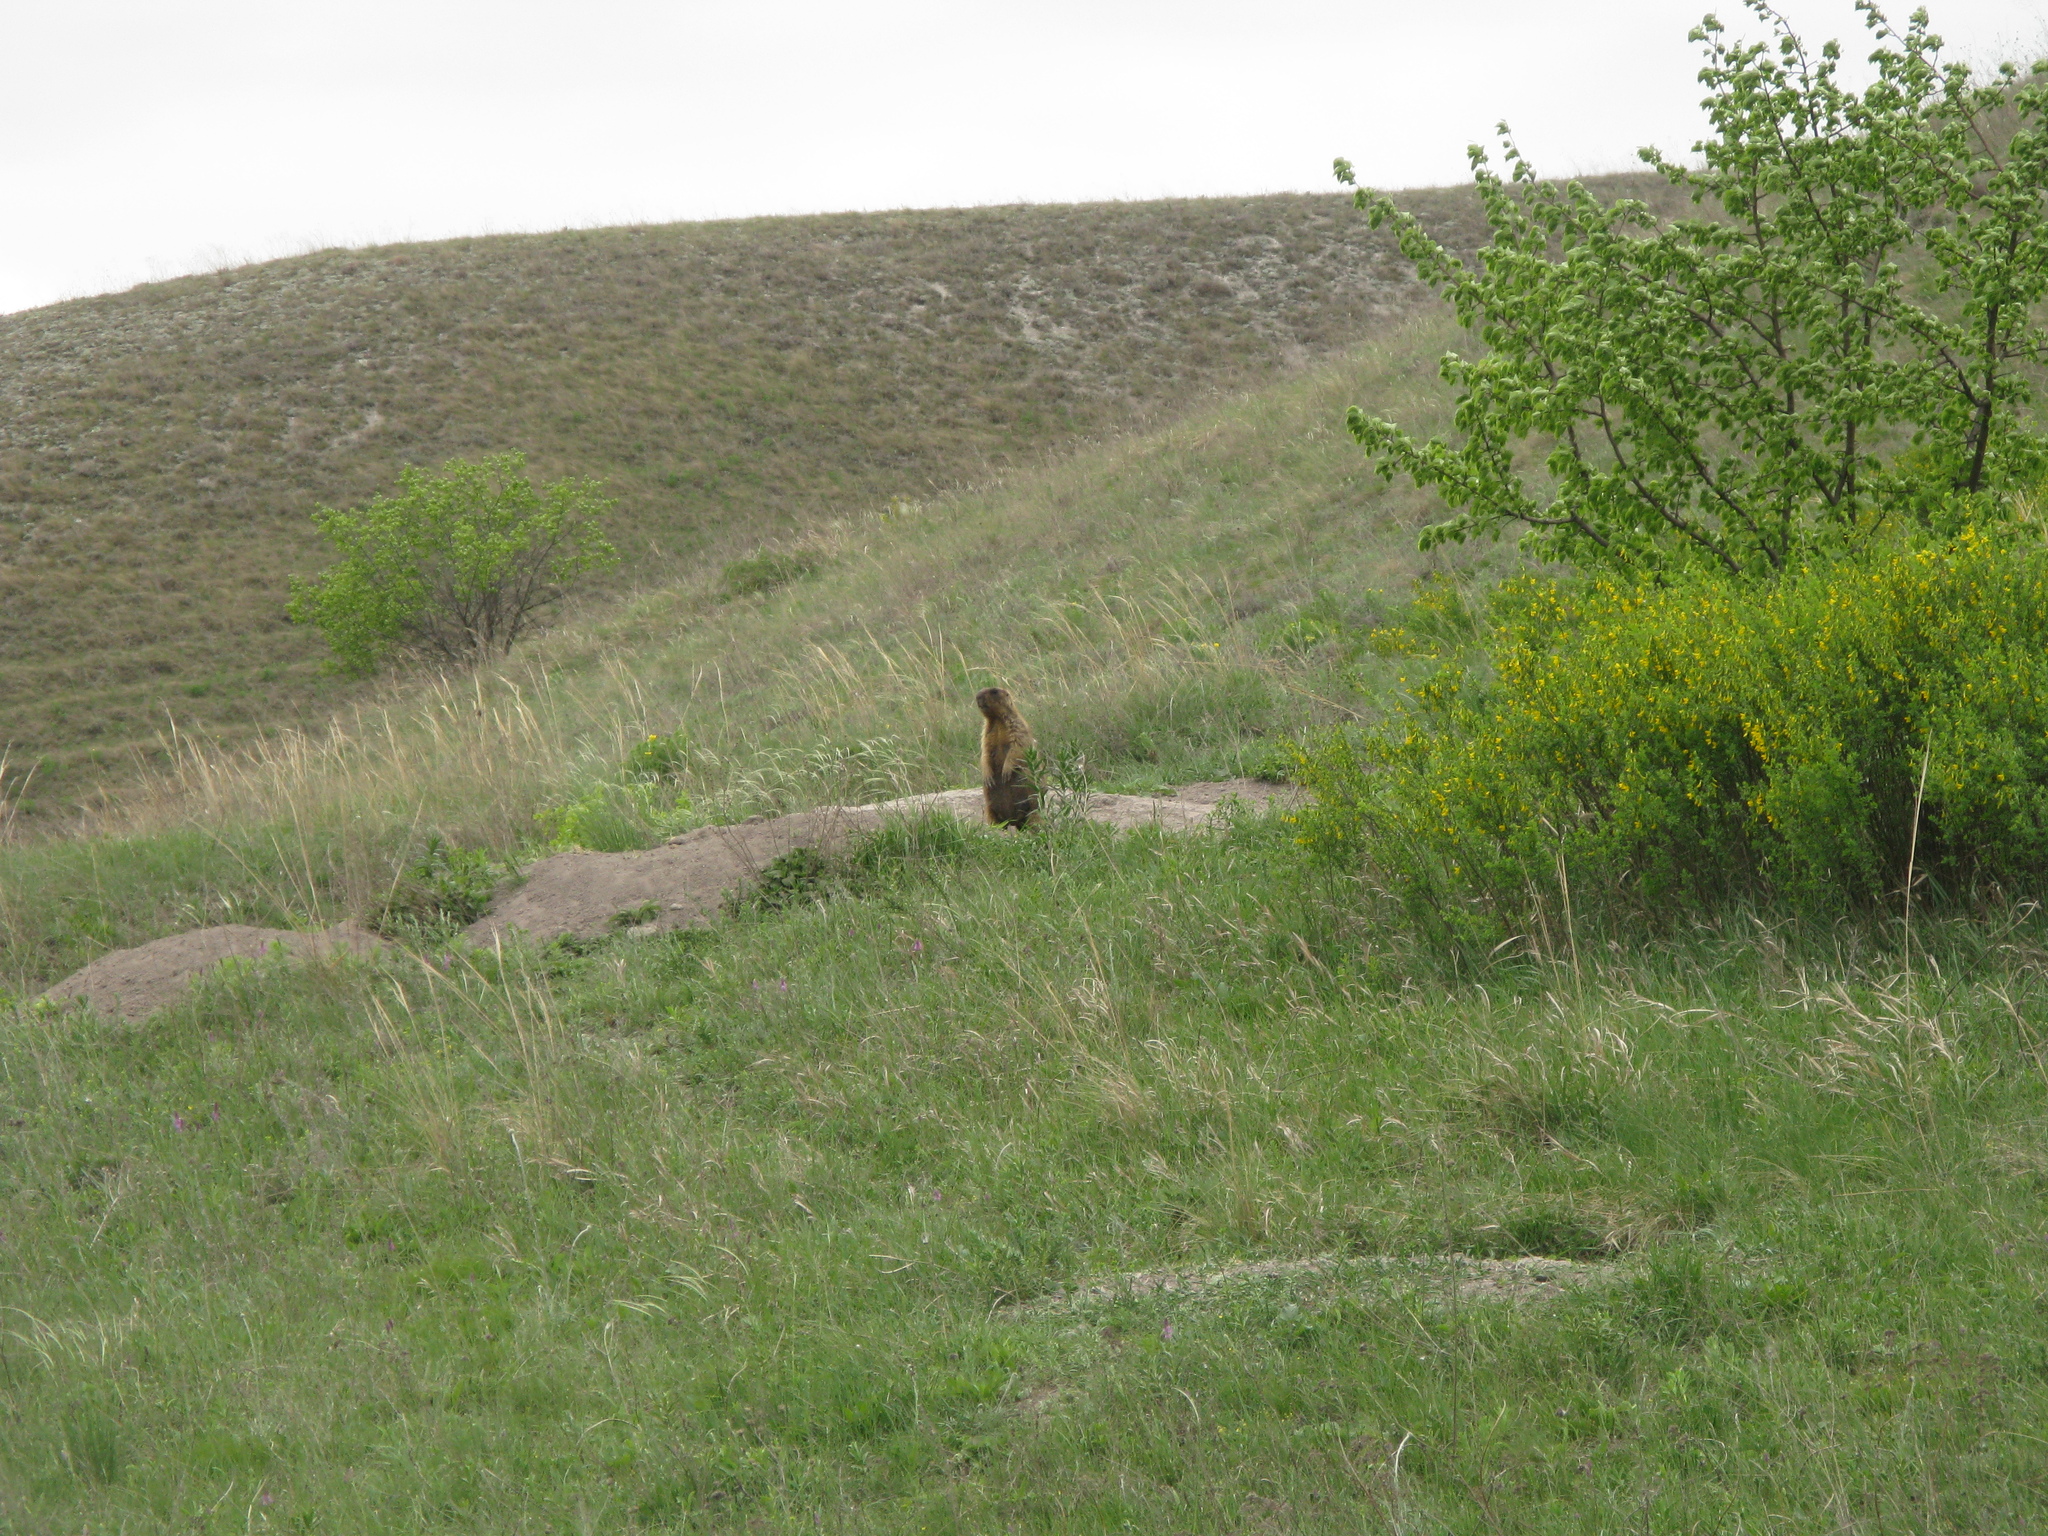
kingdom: Plantae
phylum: Tracheophyta
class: Magnoliopsida
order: Fabales
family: Fabaceae
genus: Caragana
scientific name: Caragana frutex
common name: Russian peashrub
